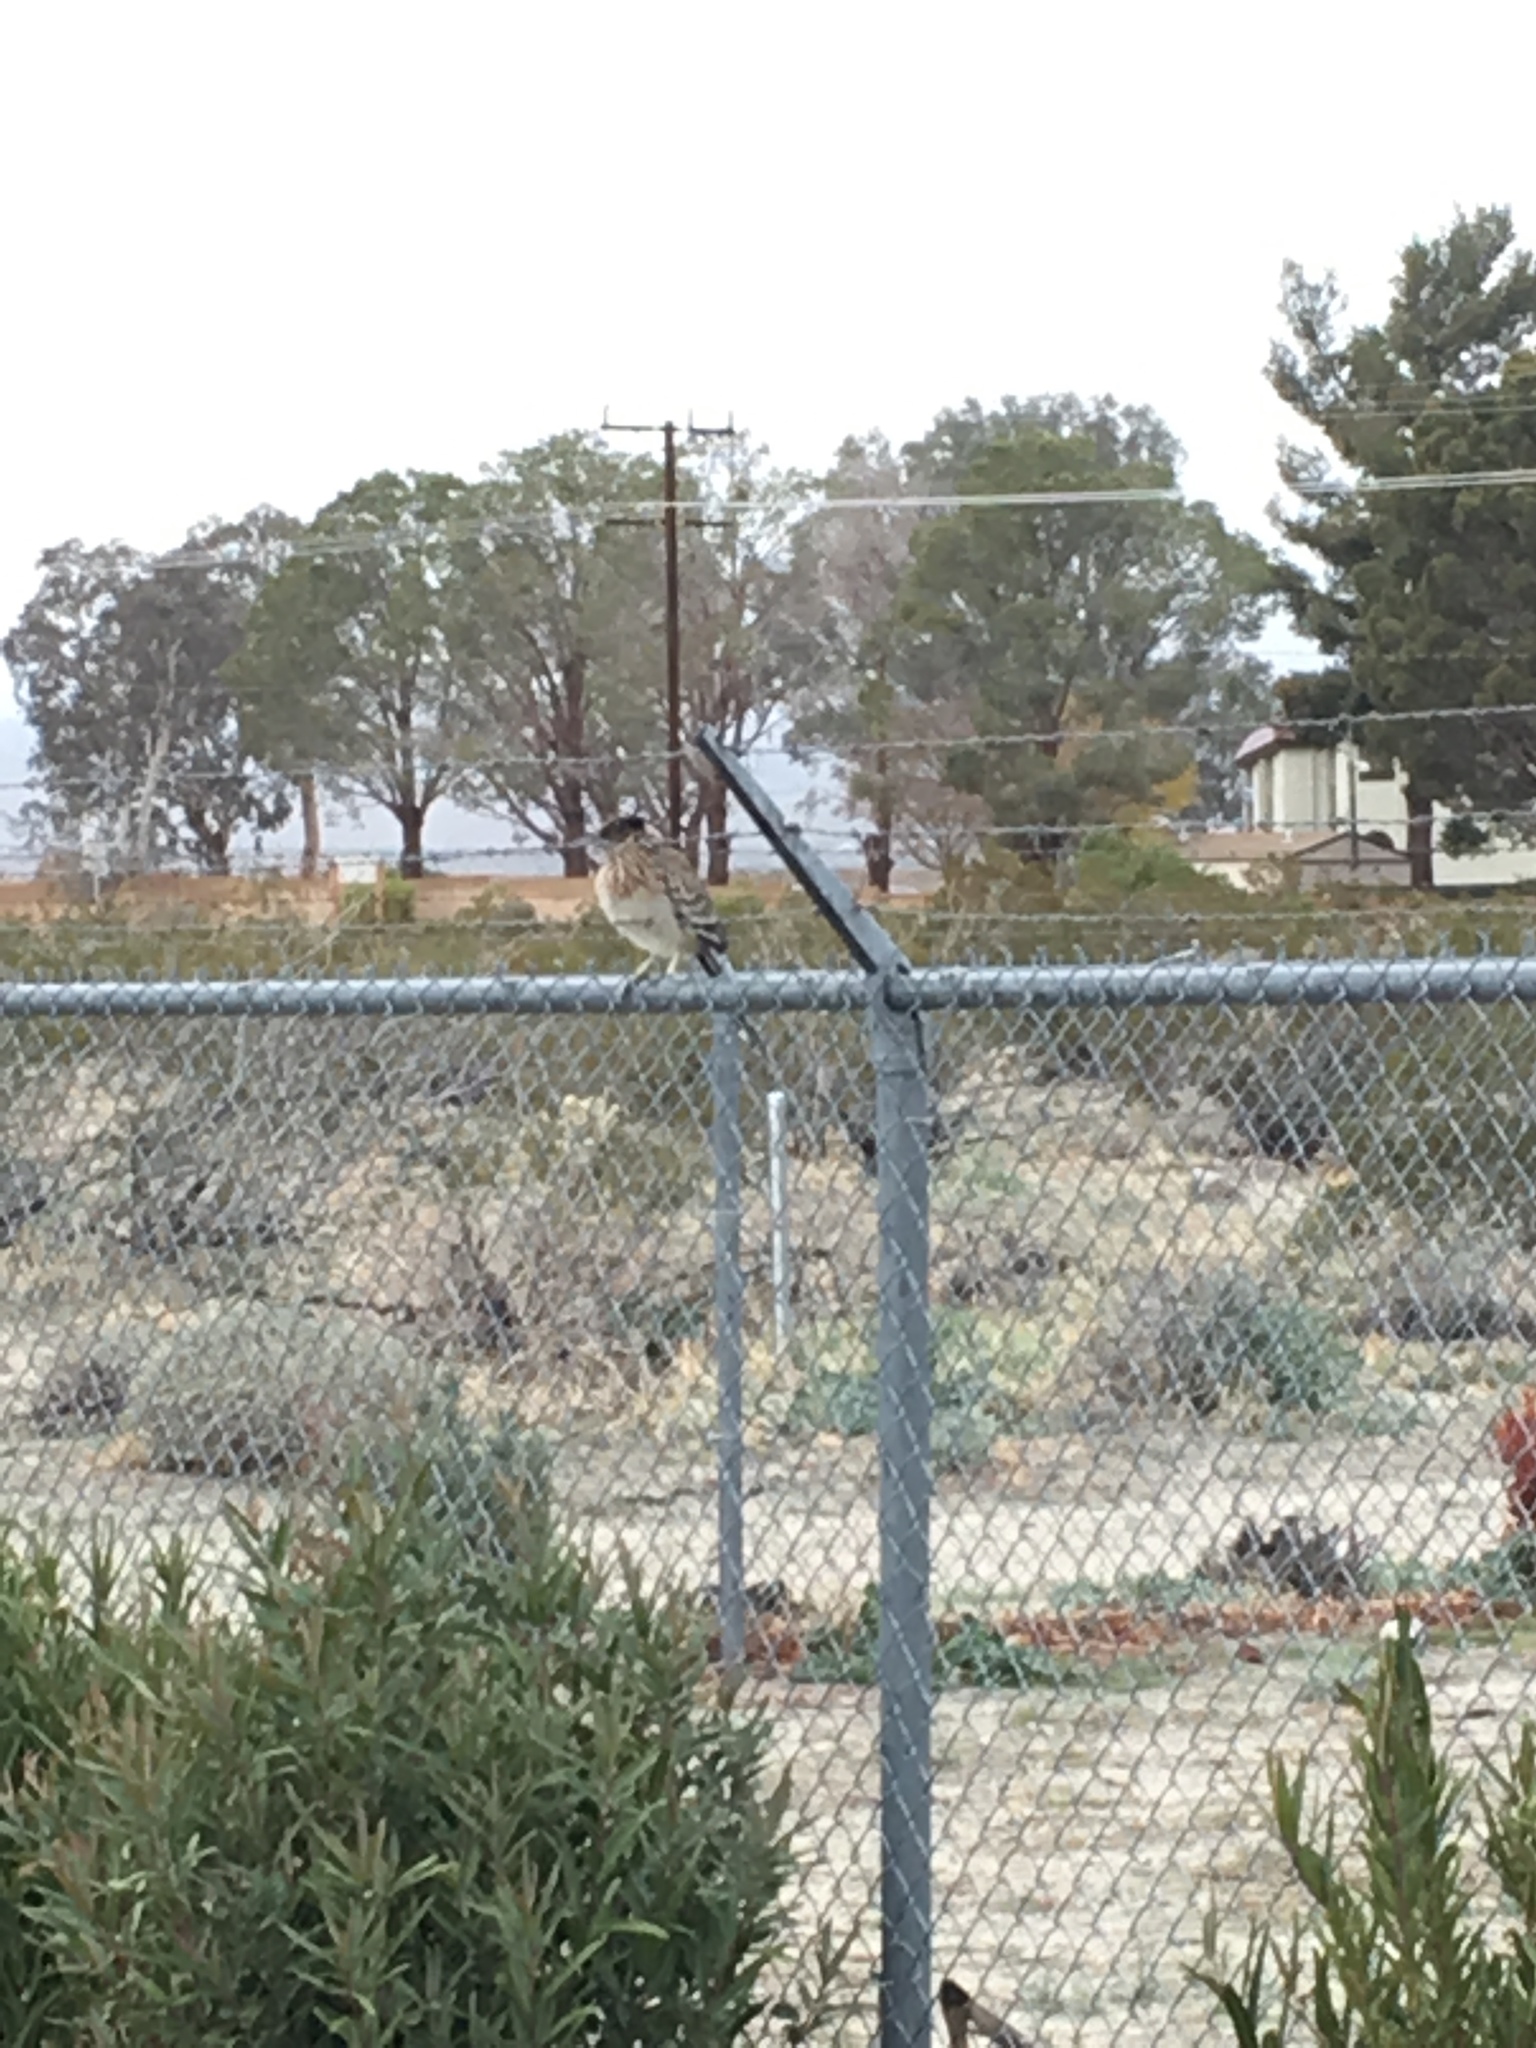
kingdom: Animalia
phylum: Chordata
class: Aves
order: Cuculiformes
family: Cuculidae
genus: Geococcyx
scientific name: Geococcyx californianus
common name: Greater roadrunner
